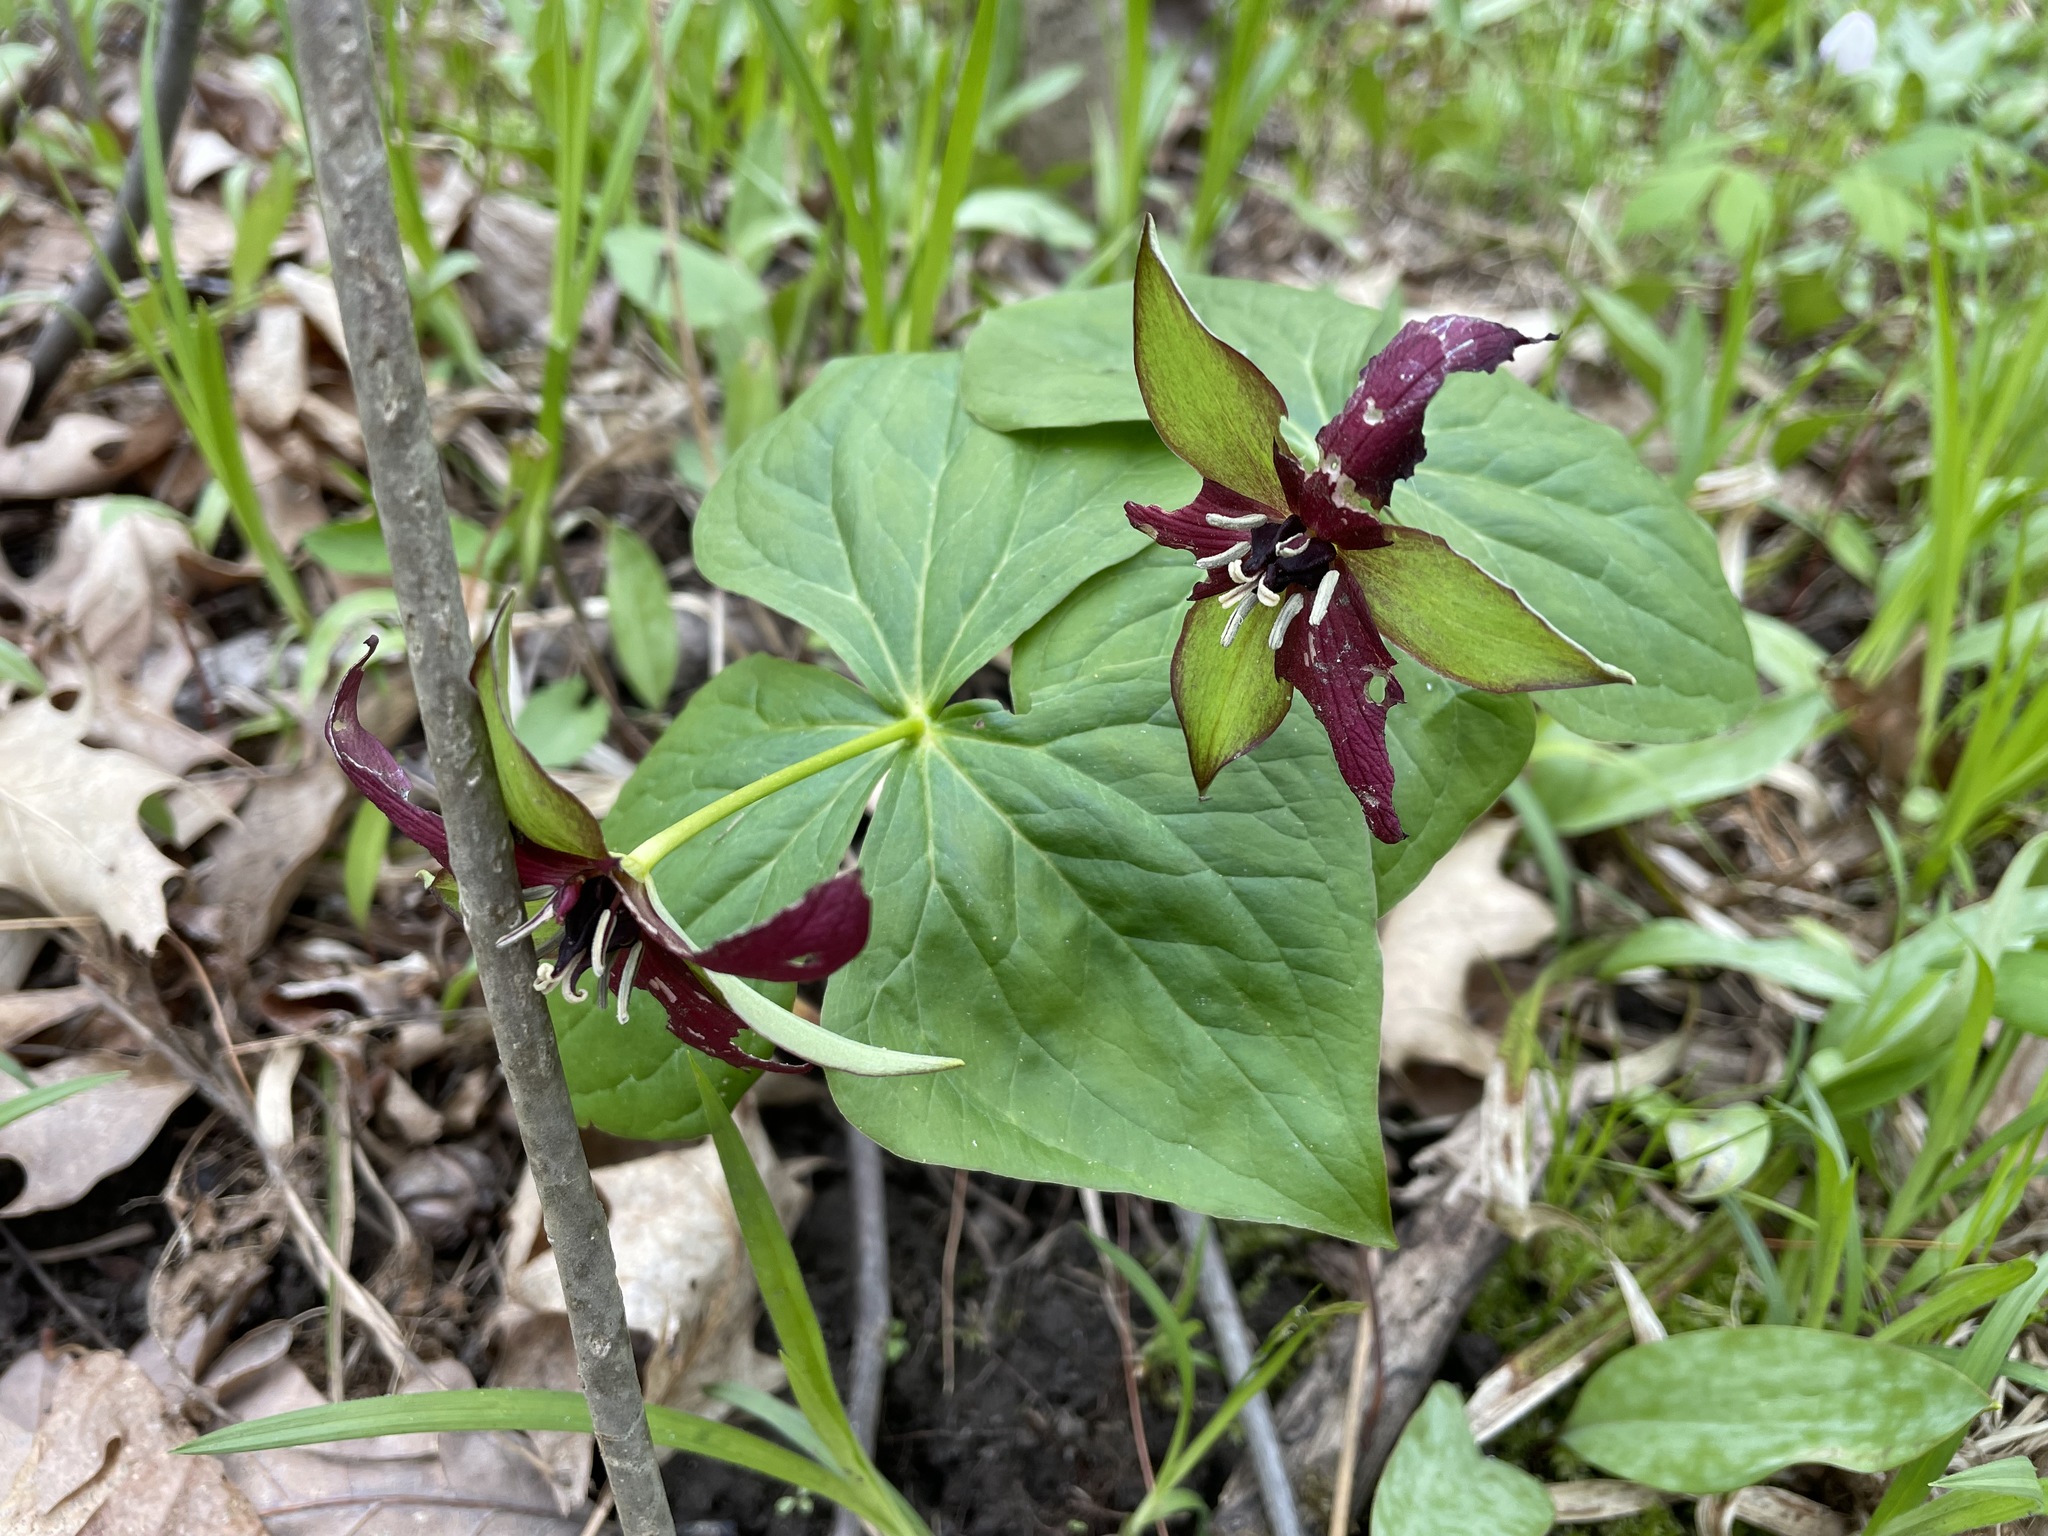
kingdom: Plantae
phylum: Tracheophyta
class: Liliopsida
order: Liliales
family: Melanthiaceae
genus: Trillium
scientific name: Trillium erectum
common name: Purple trillium
